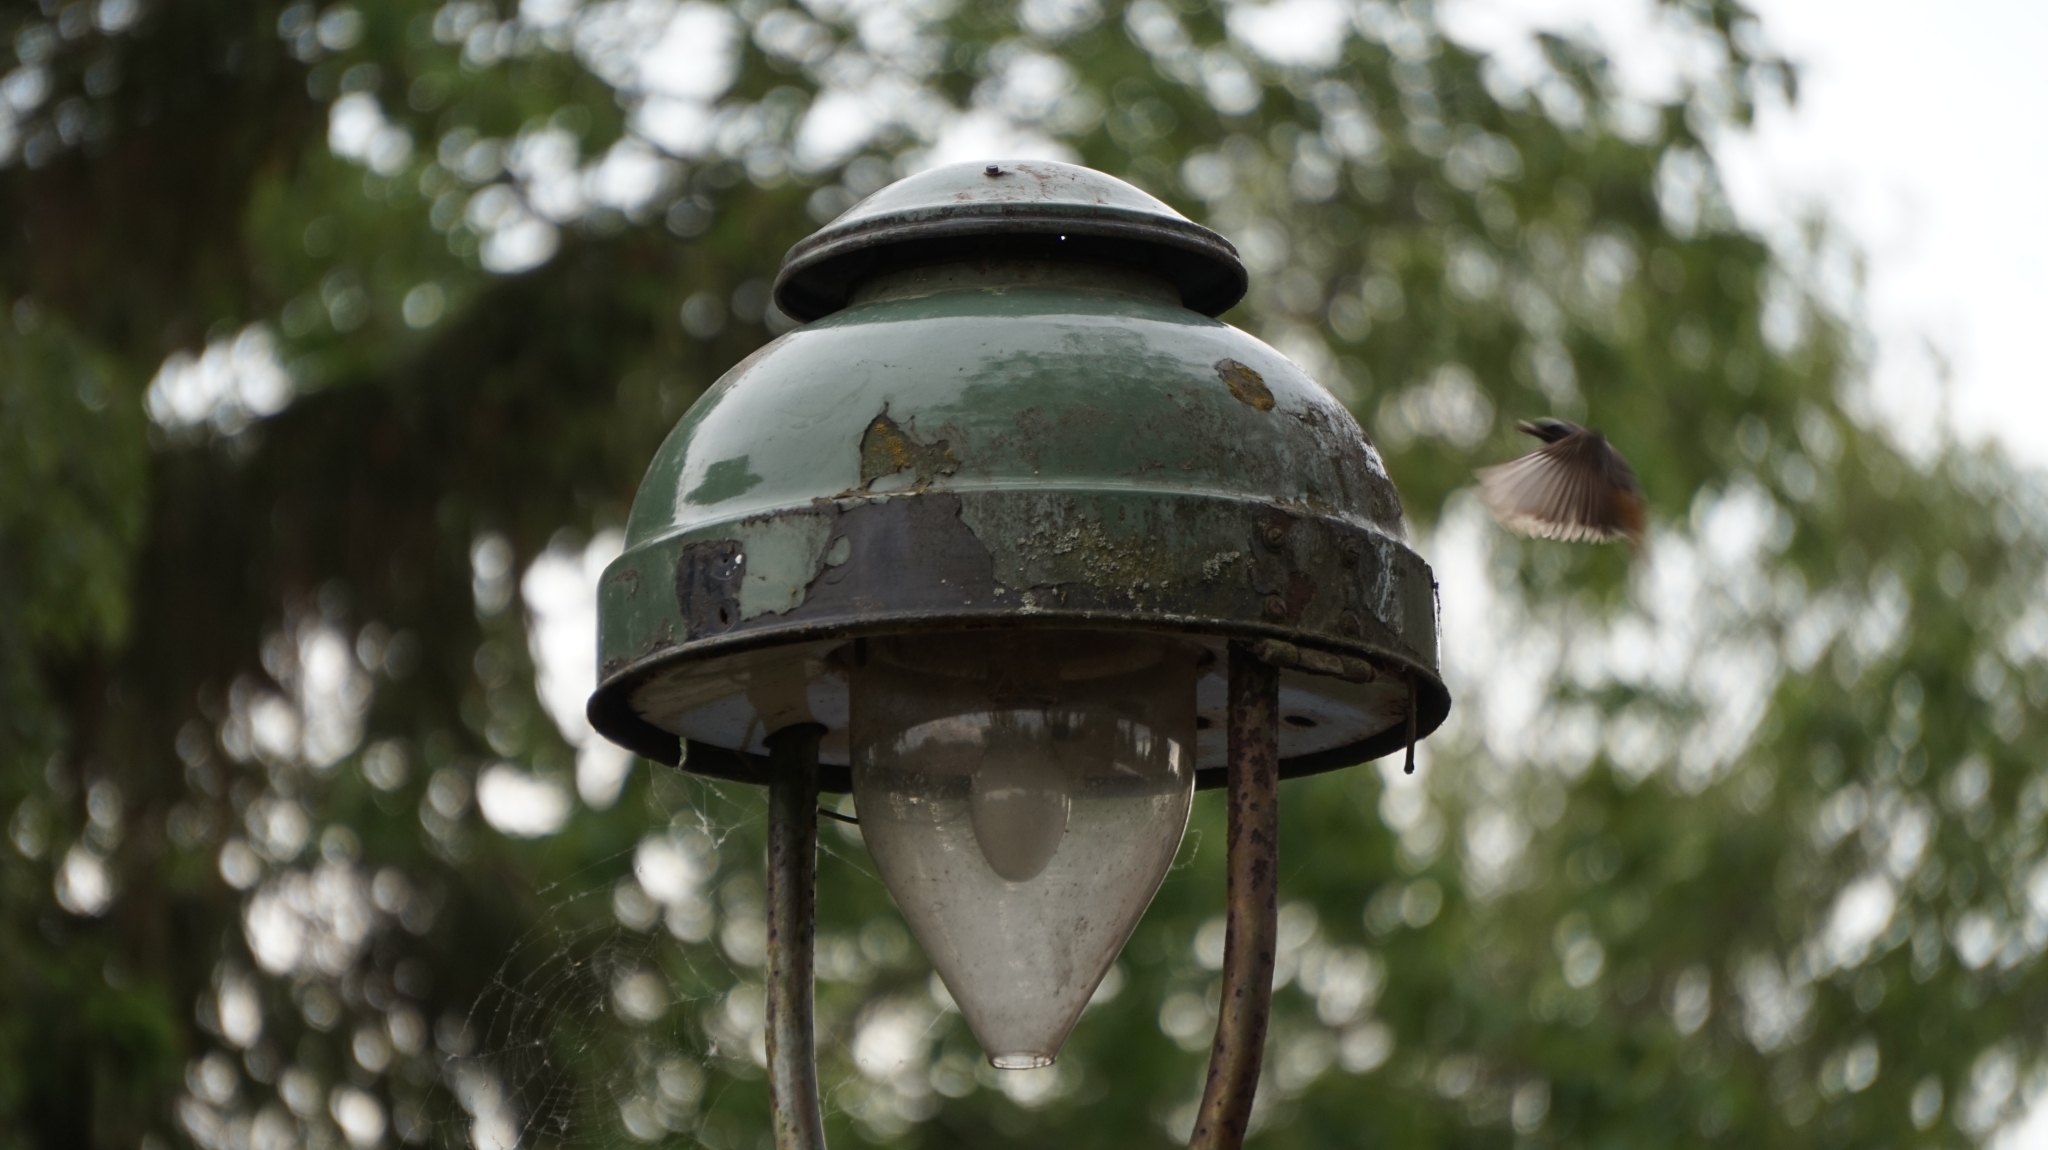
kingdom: Animalia
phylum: Chordata
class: Aves
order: Passeriformes
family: Muscicapidae
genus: Phoenicurus
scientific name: Phoenicurus phoenicurus
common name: Common redstart
